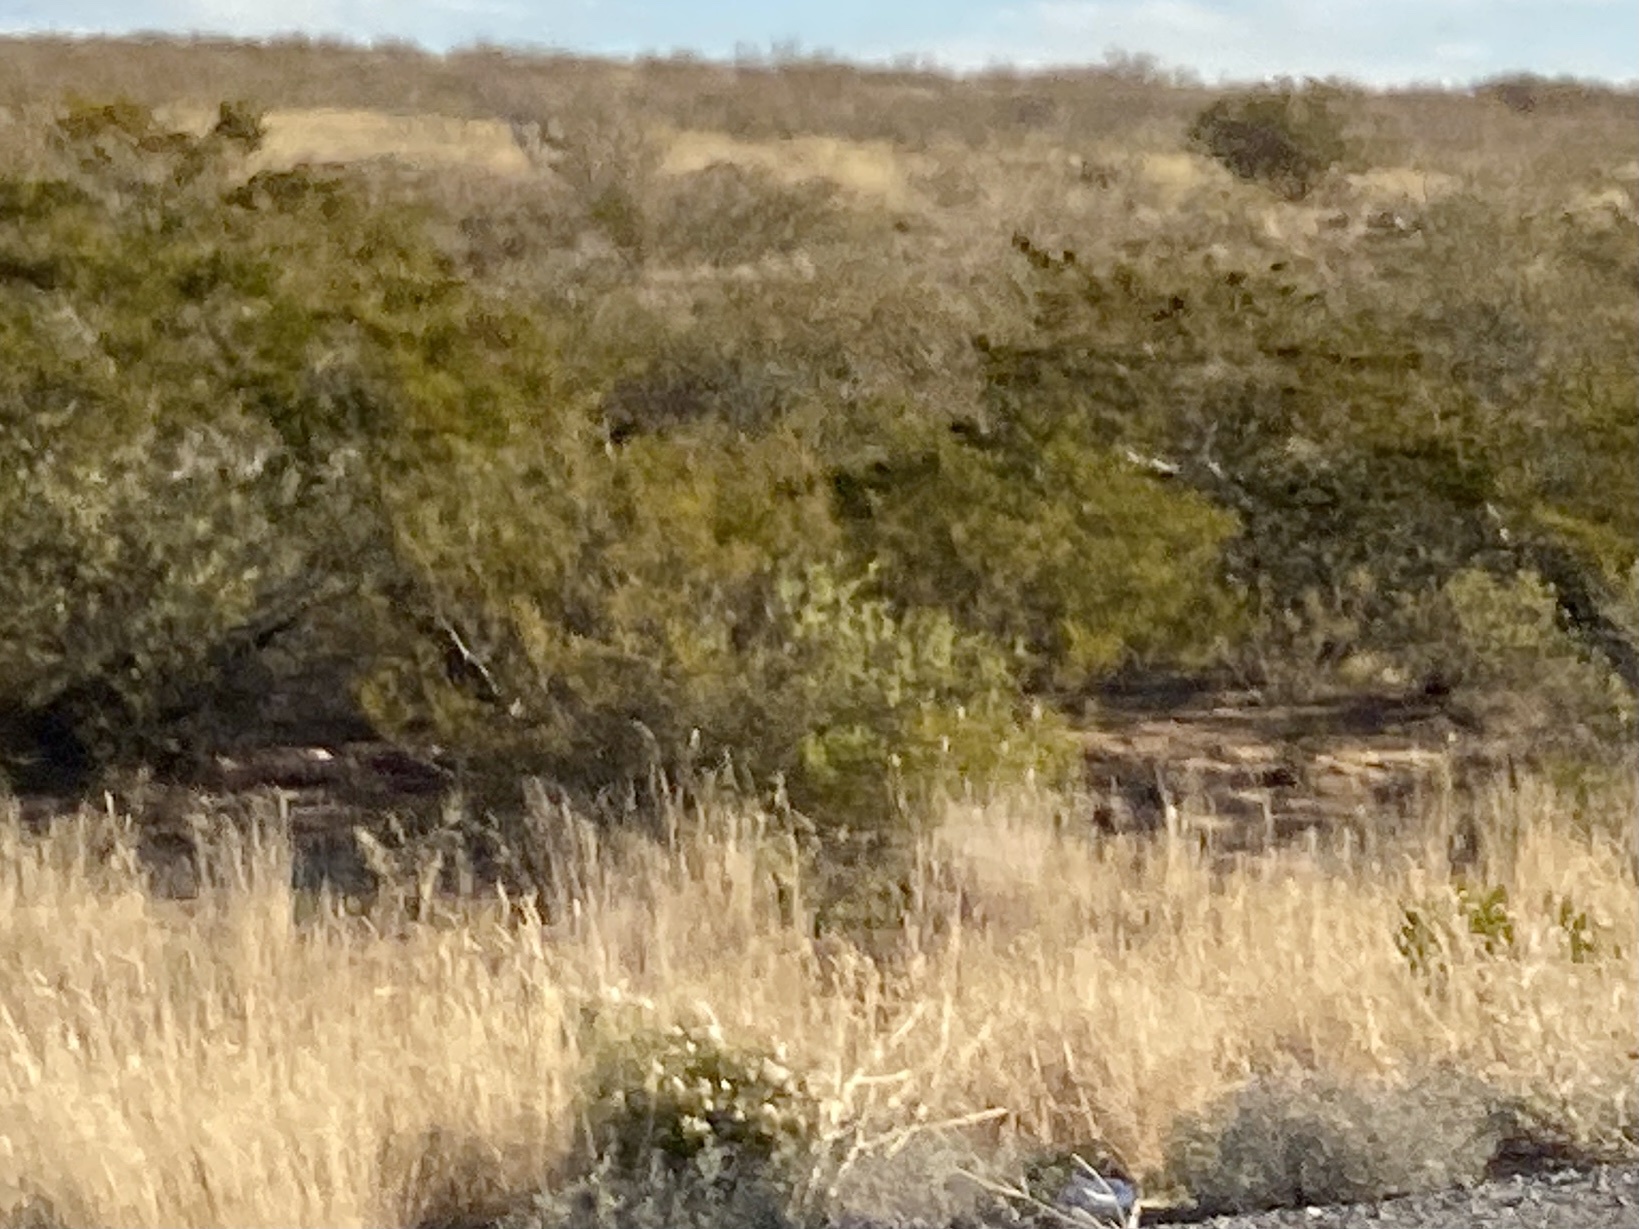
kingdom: Plantae
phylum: Tracheophyta
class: Magnoliopsida
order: Zygophyllales
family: Zygophyllaceae
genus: Larrea
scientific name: Larrea tridentata
